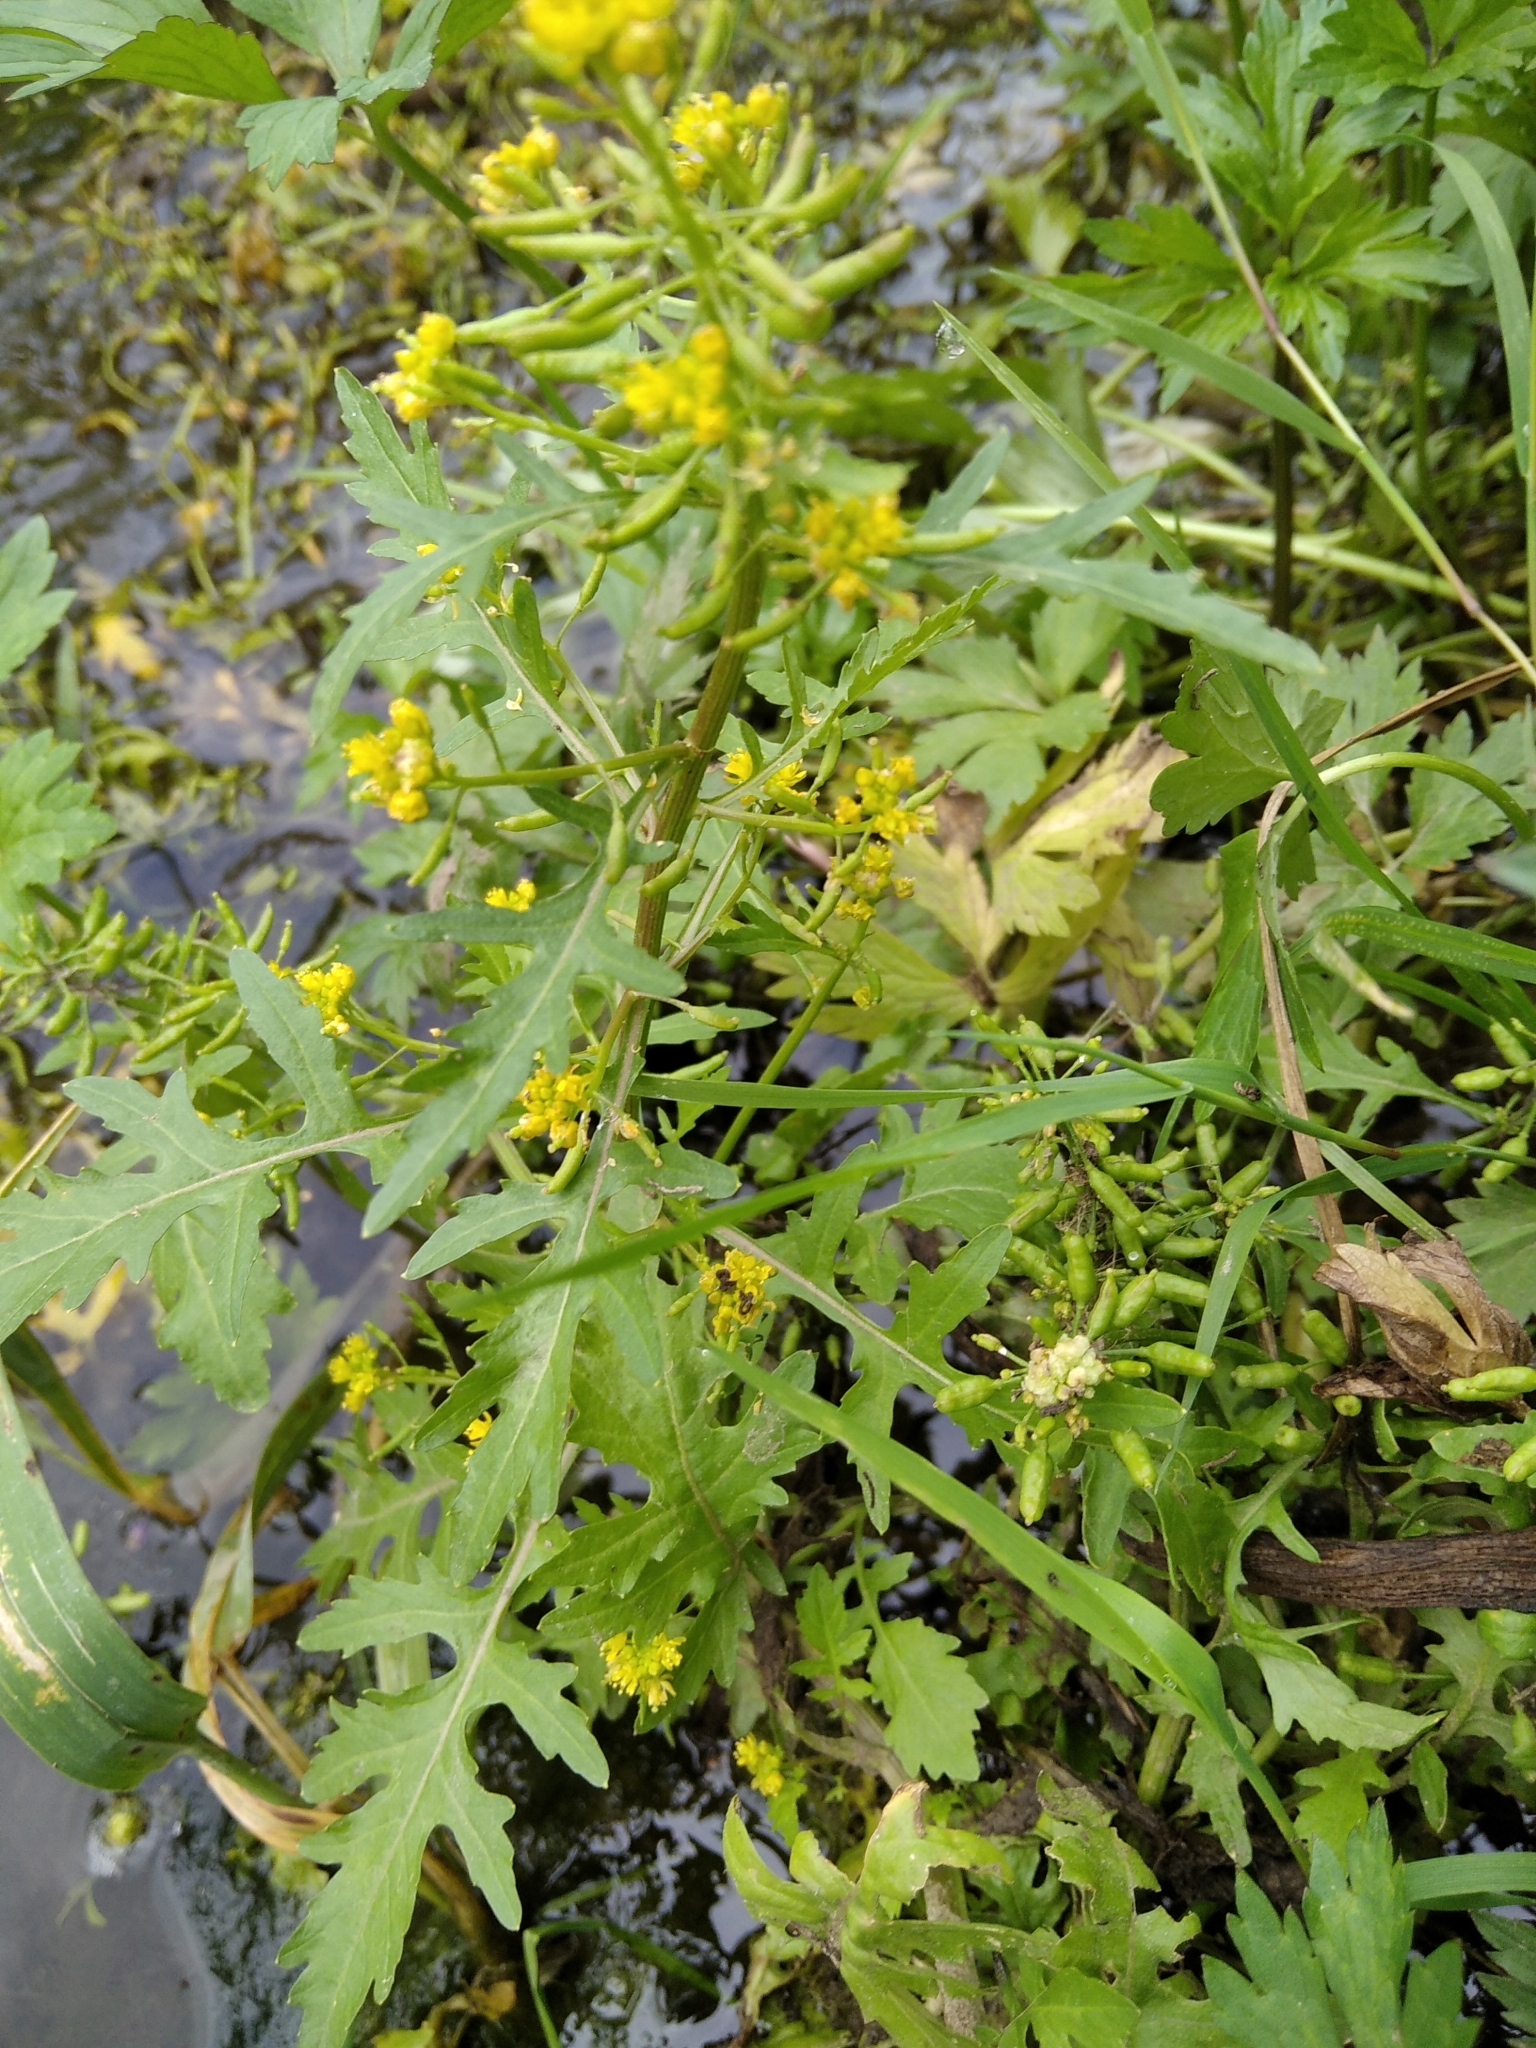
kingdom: Plantae
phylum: Tracheophyta
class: Magnoliopsida
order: Brassicales
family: Brassicaceae
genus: Rorippa
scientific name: Rorippa palustris
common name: Marsh yellow-cress
